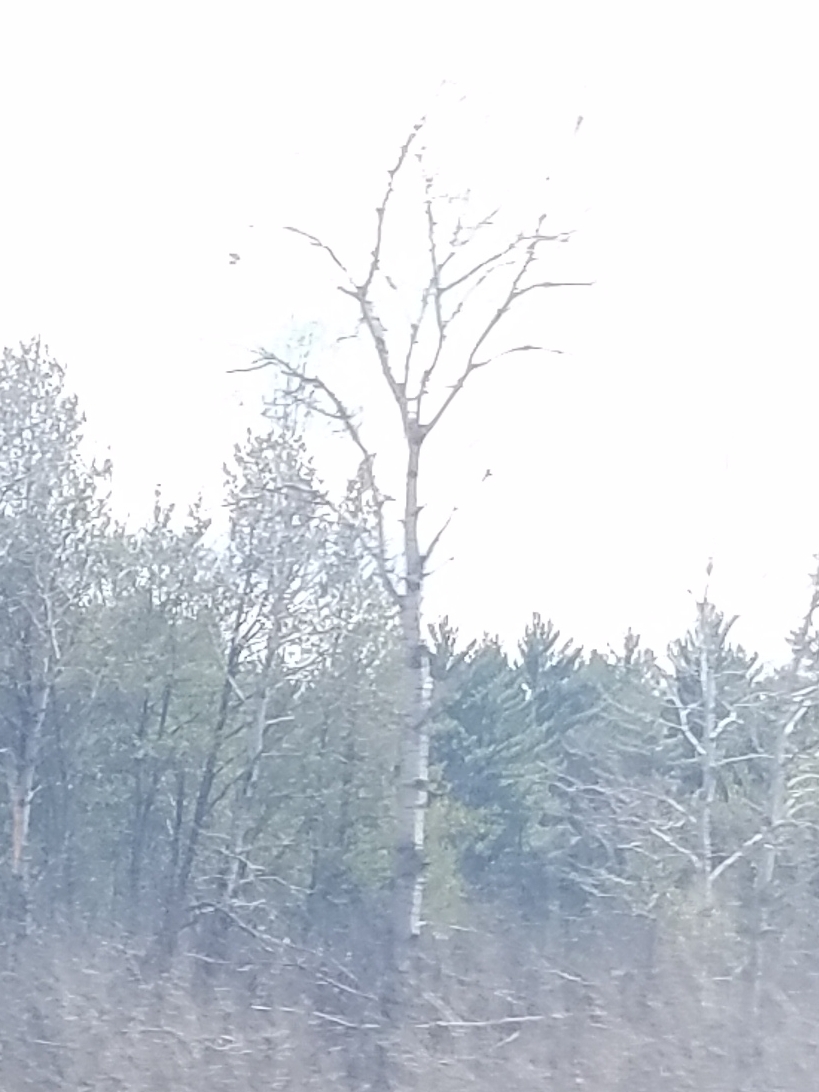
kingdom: Plantae
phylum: Tracheophyta
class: Magnoliopsida
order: Malpighiales
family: Salicaceae
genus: Populus
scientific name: Populus tremuloides
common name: Quaking aspen
